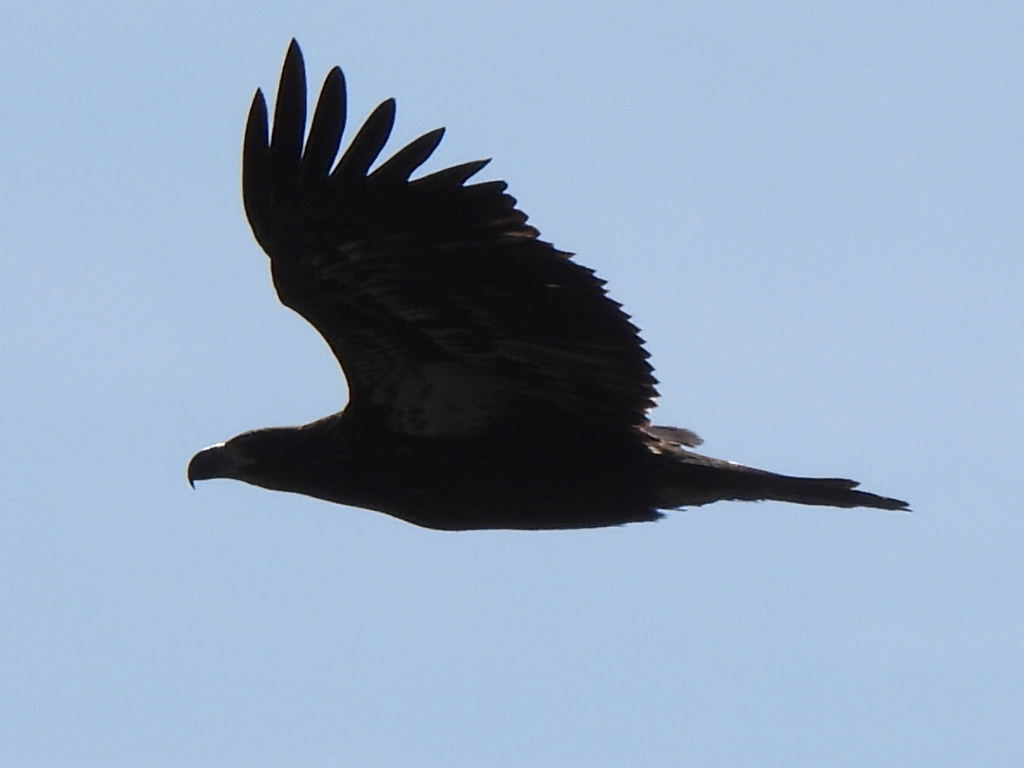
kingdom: Animalia
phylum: Chordata
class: Aves
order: Accipitriformes
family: Accipitridae
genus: Haliaeetus
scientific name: Haliaeetus leucocephalus
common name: Bald eagle
